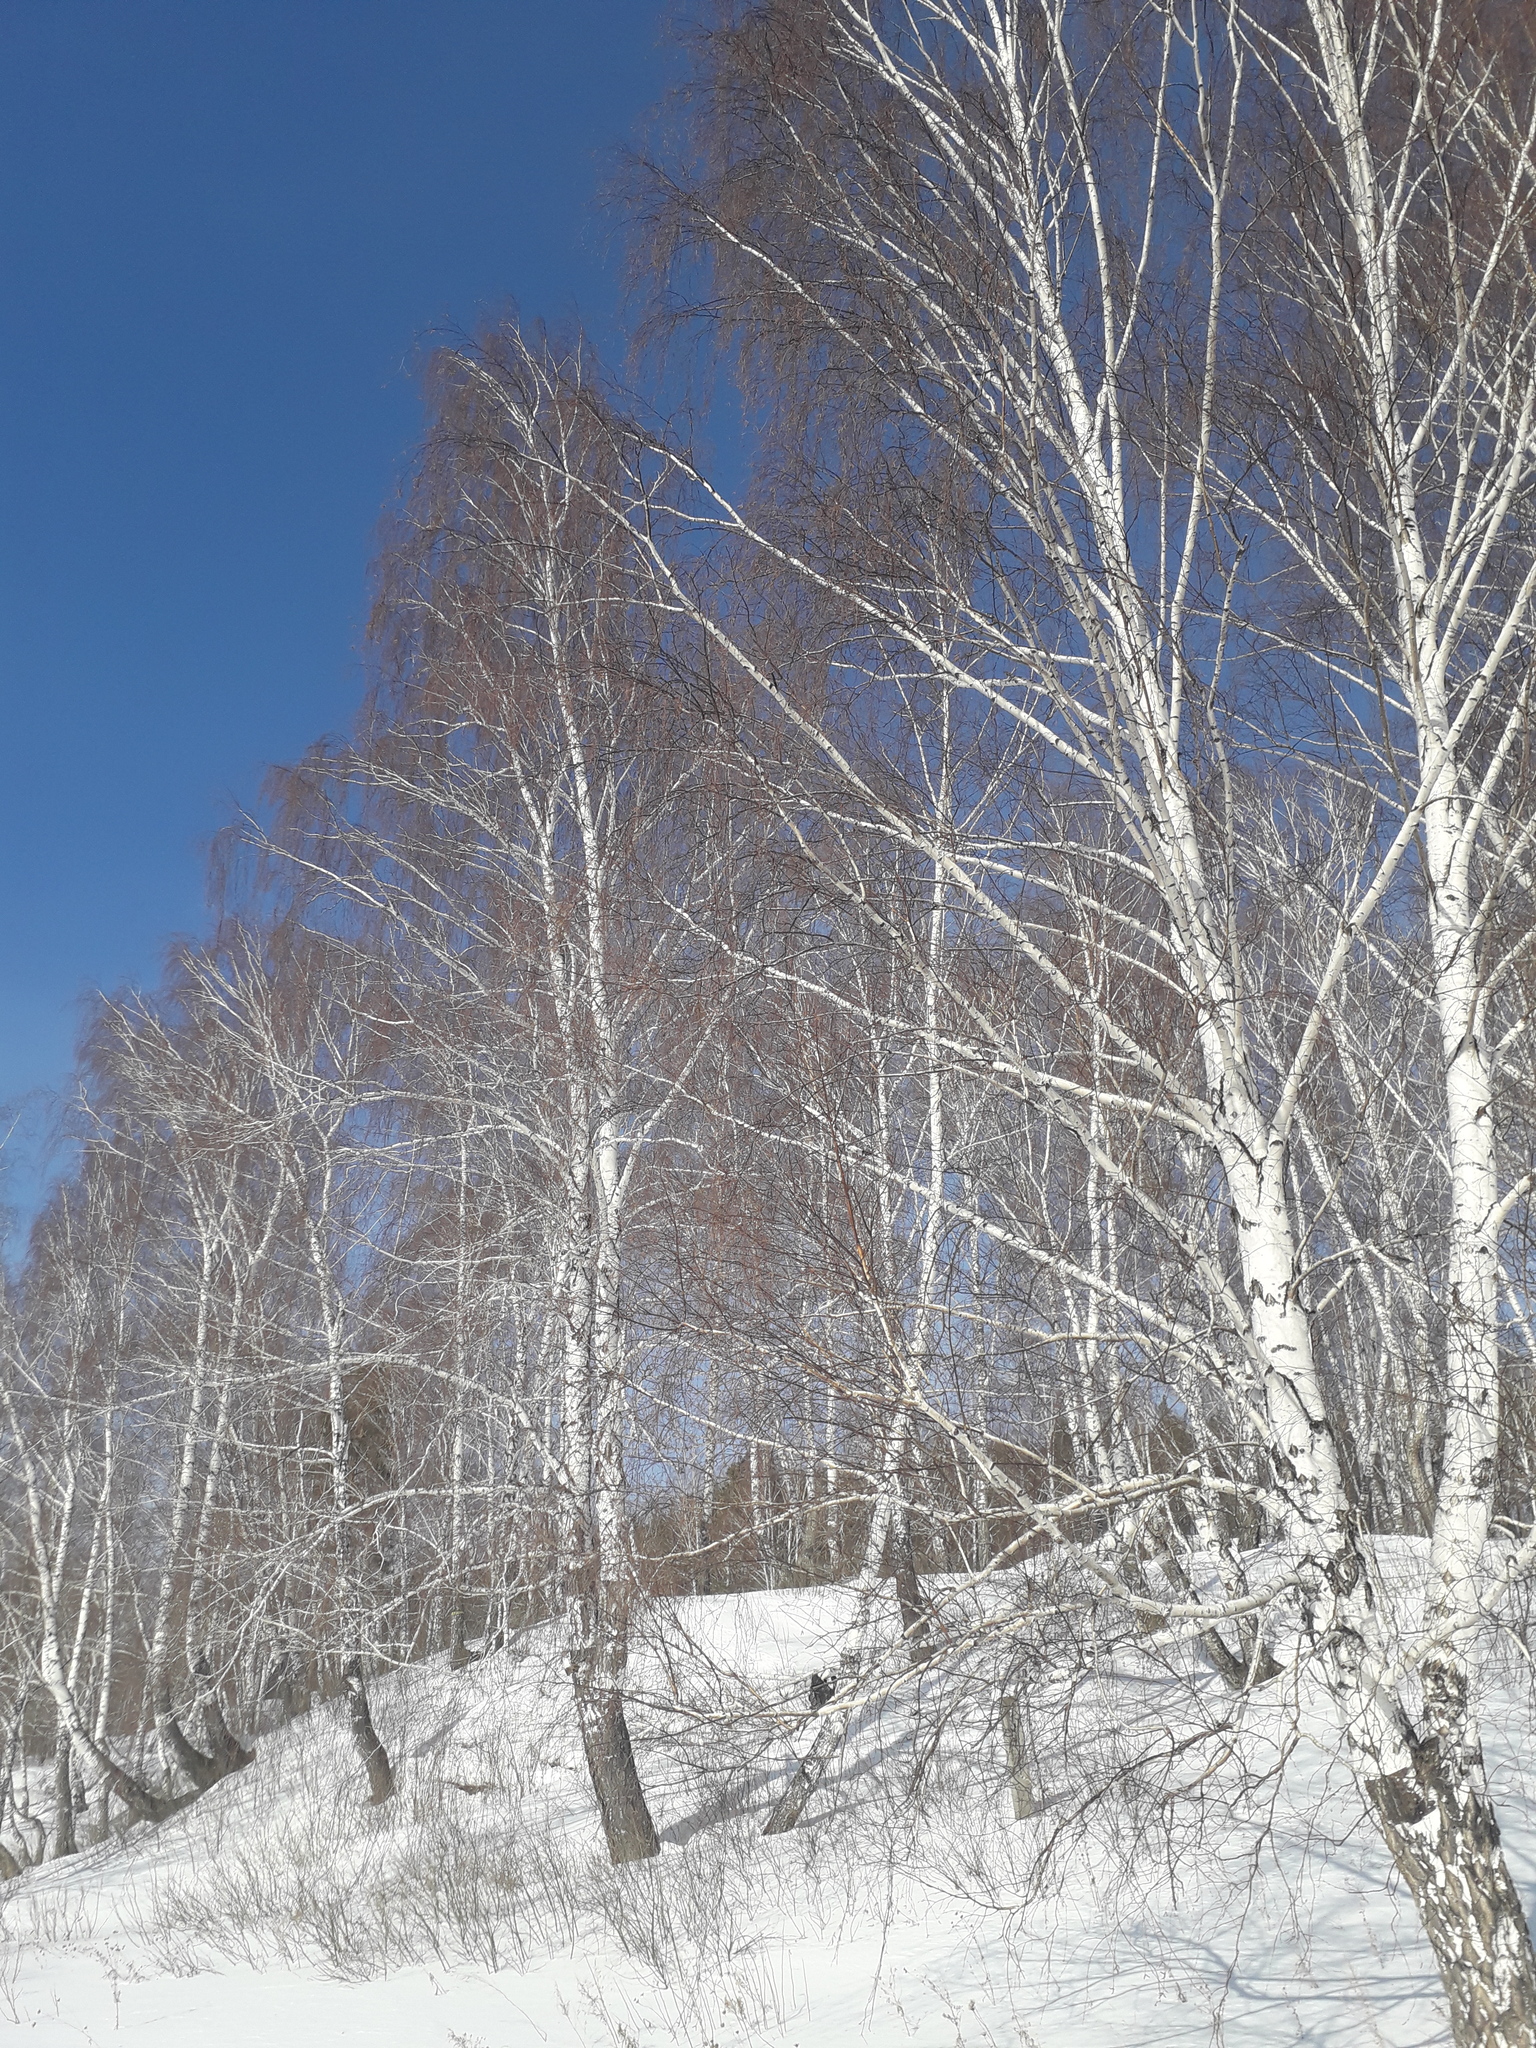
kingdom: Plantae
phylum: Tracheophyta
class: Magnoliopsida
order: Fagales
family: Betulaceae
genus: Betula
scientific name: Betula pendula
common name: Silver birch
